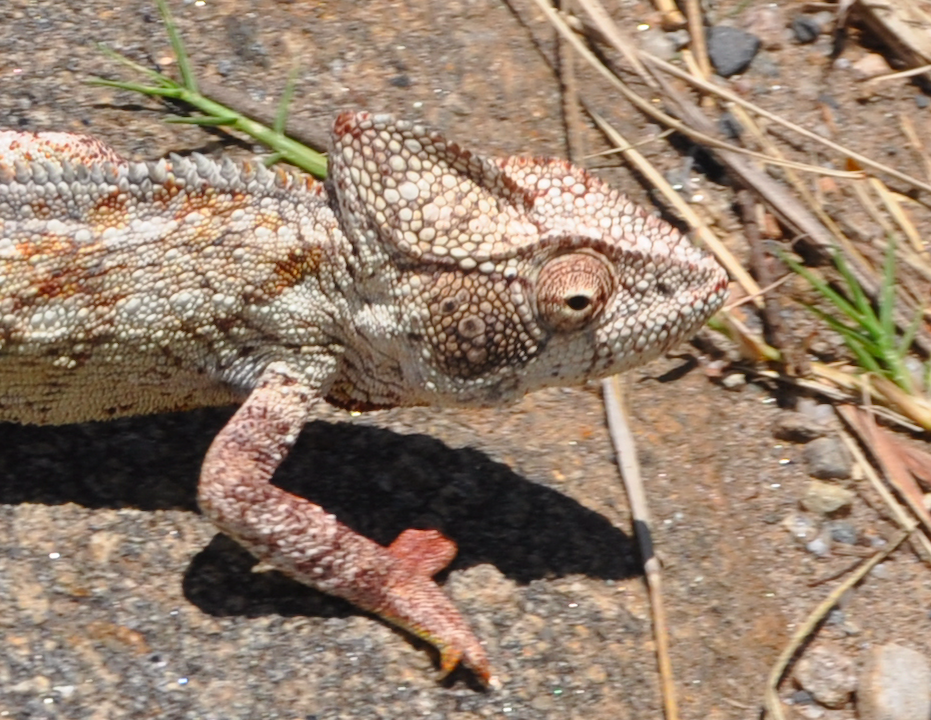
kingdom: Animalia
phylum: Chordata
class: Squamata
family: Chamaeleonidae
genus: Furcifer
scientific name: Furcifer oustaleti
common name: Oustalet's chameleon
